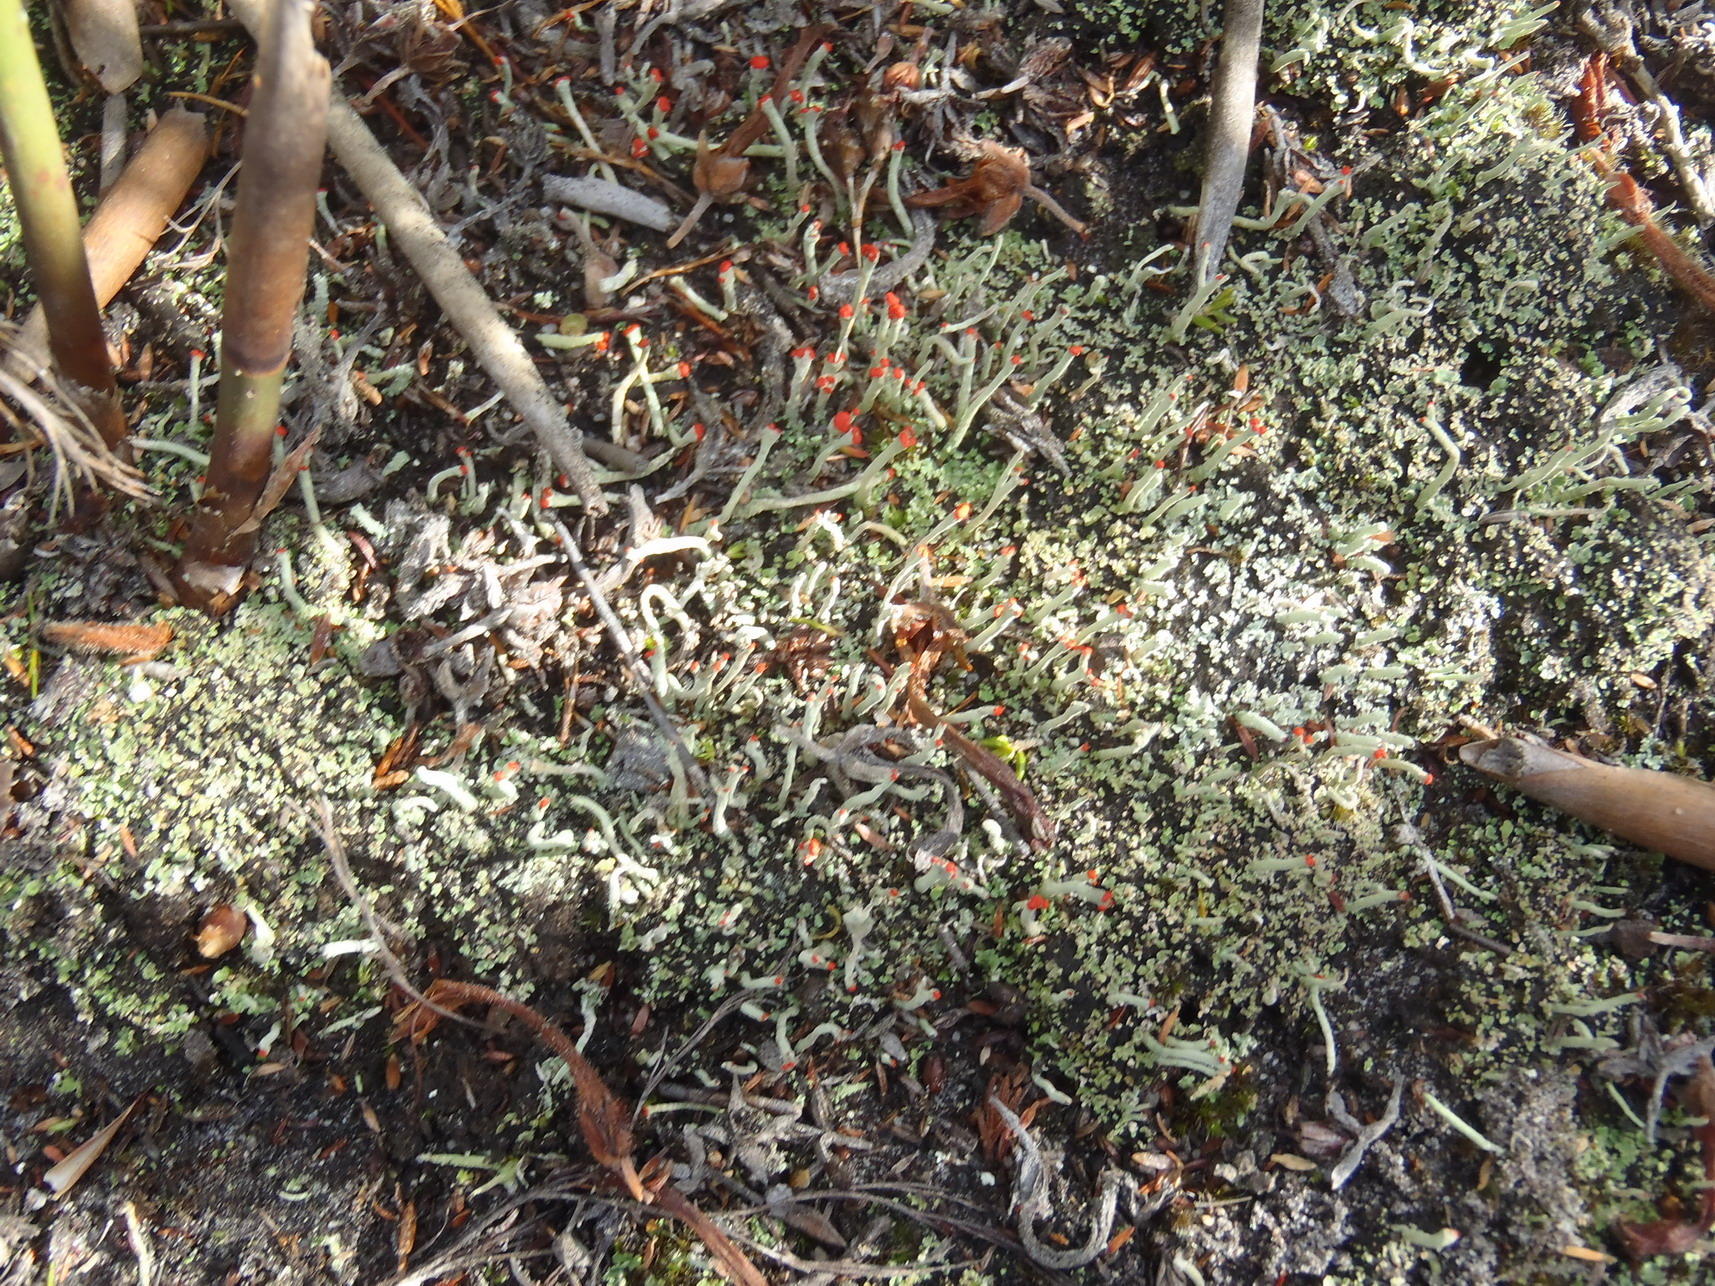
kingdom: Fungi
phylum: Ascomycota
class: Lecanoromycetes
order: Lecanorales
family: Cladoniaceae
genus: Cladonia
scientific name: Cladonia macilenta
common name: Lipstick powderhorn
